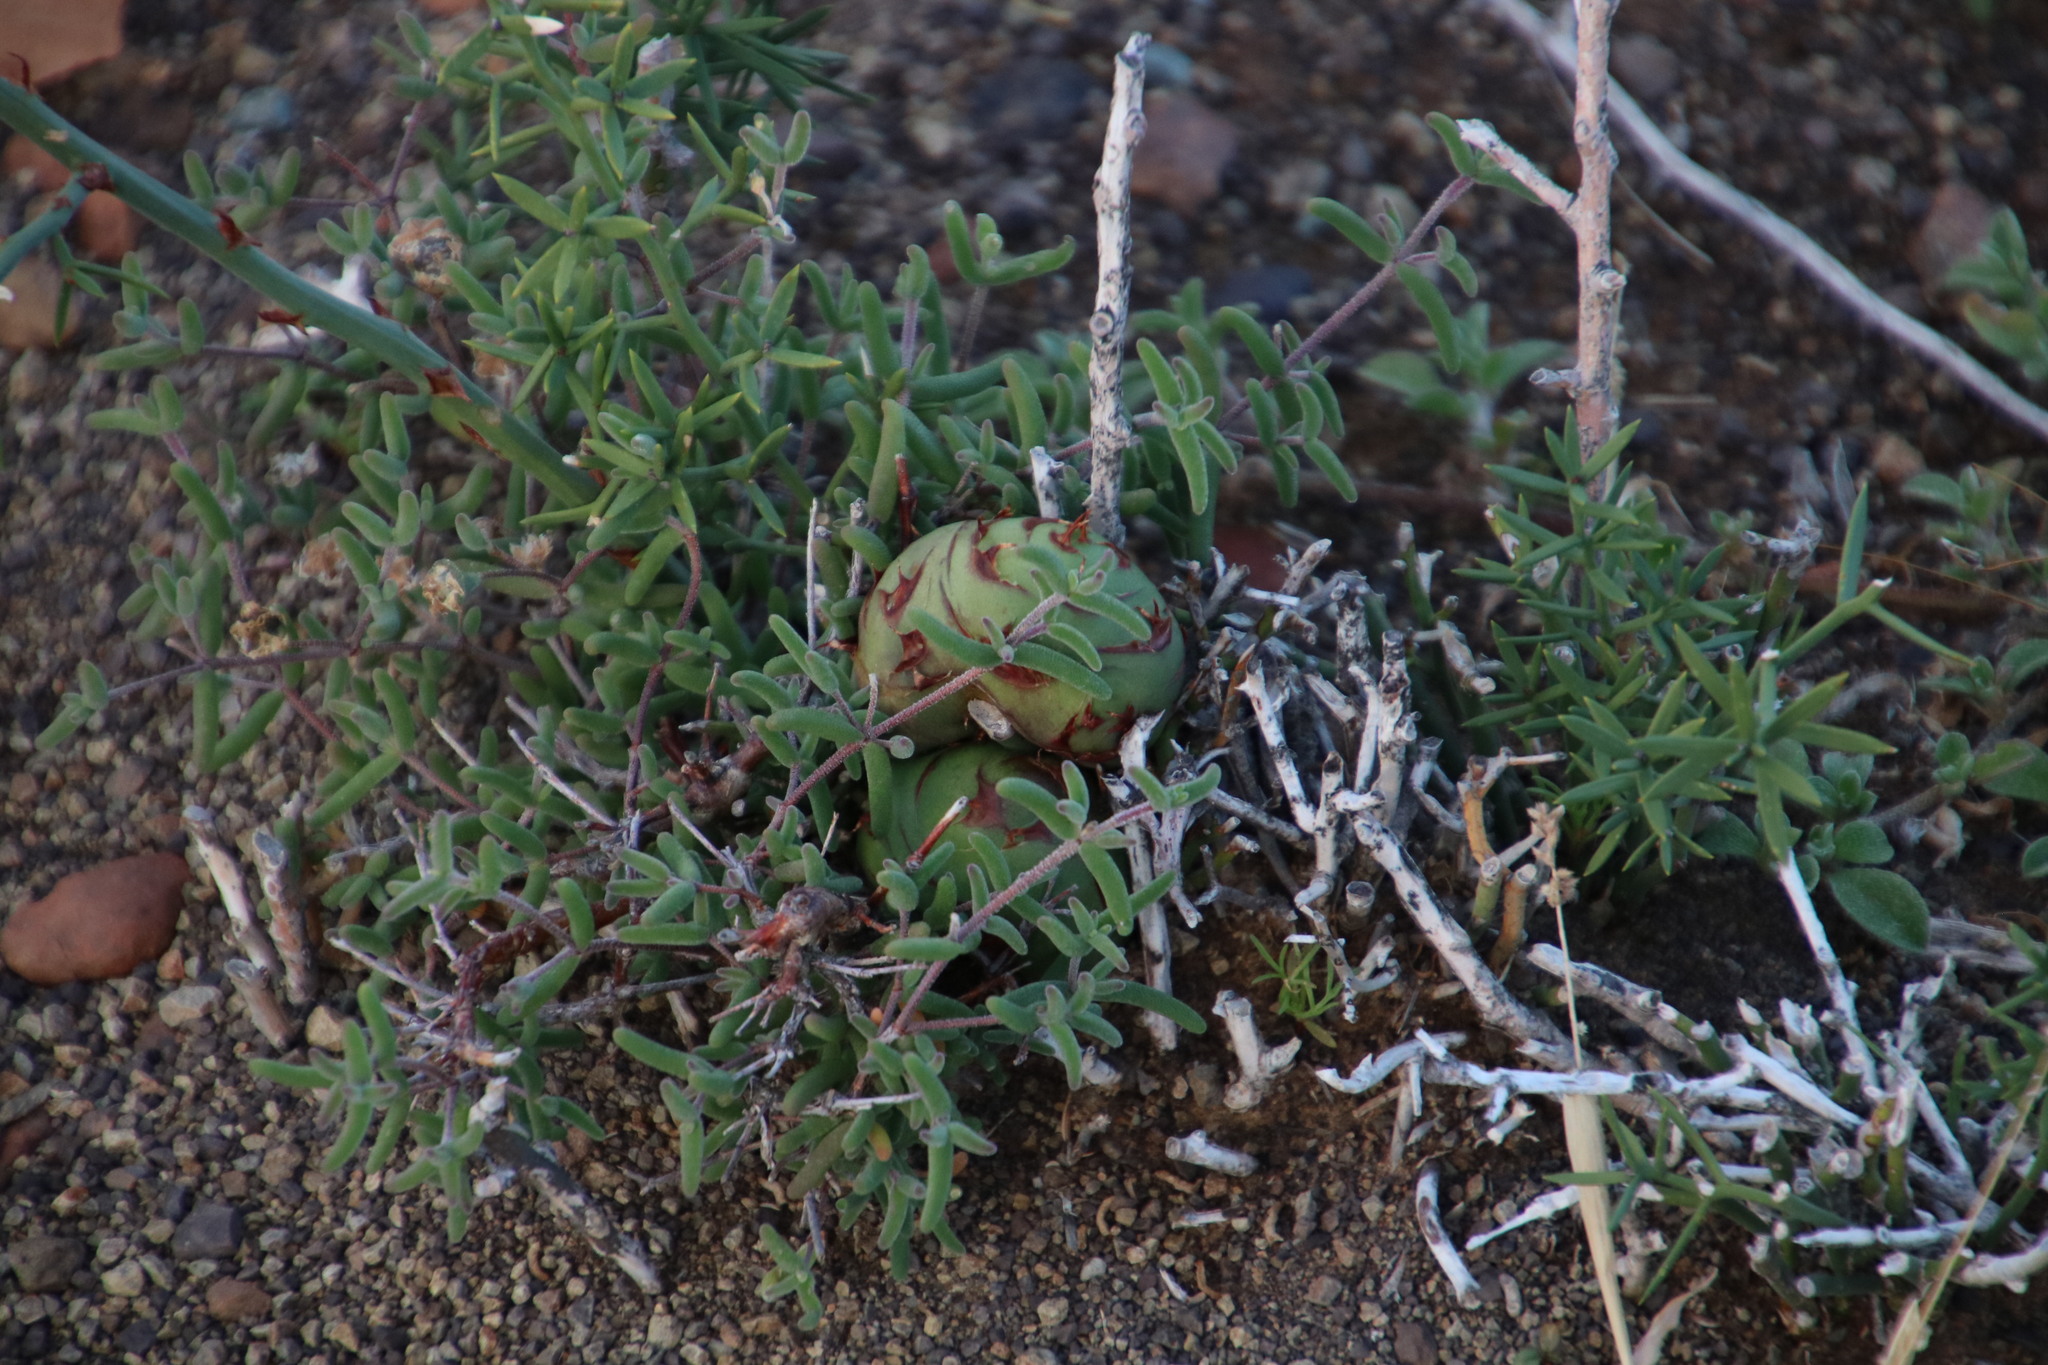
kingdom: Plantae
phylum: Tracheophyta
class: Liliopsida
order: Asparagales
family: Asparagaceae
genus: Asparagus
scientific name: Asparagus striatus
